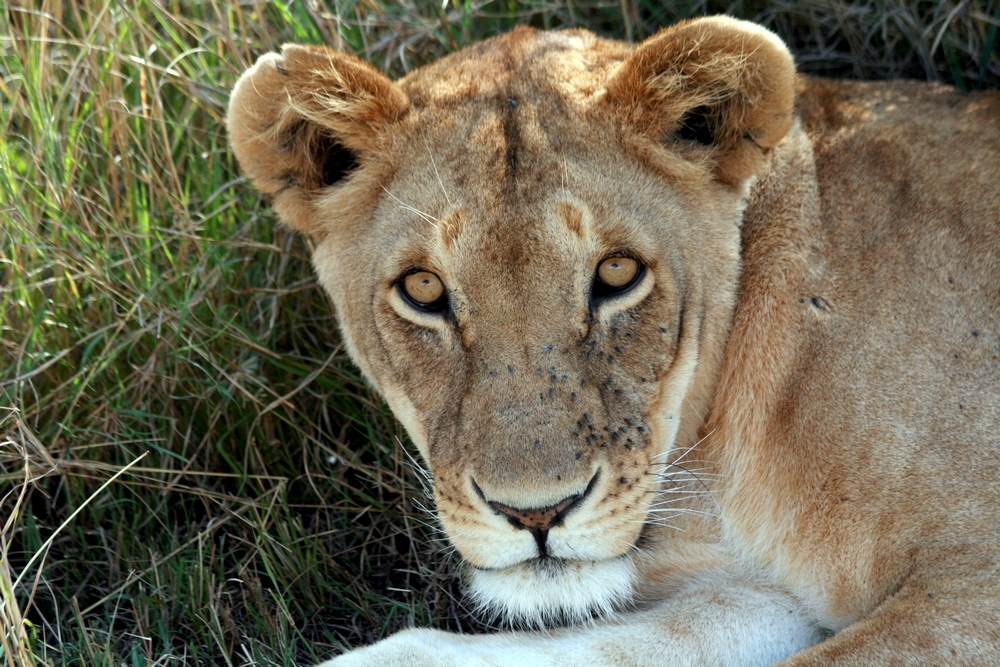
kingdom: Animalia
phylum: Chordata
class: Mammalia
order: Carnivora
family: Felidae
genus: Panthera
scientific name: Panthera leo
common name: Lion
